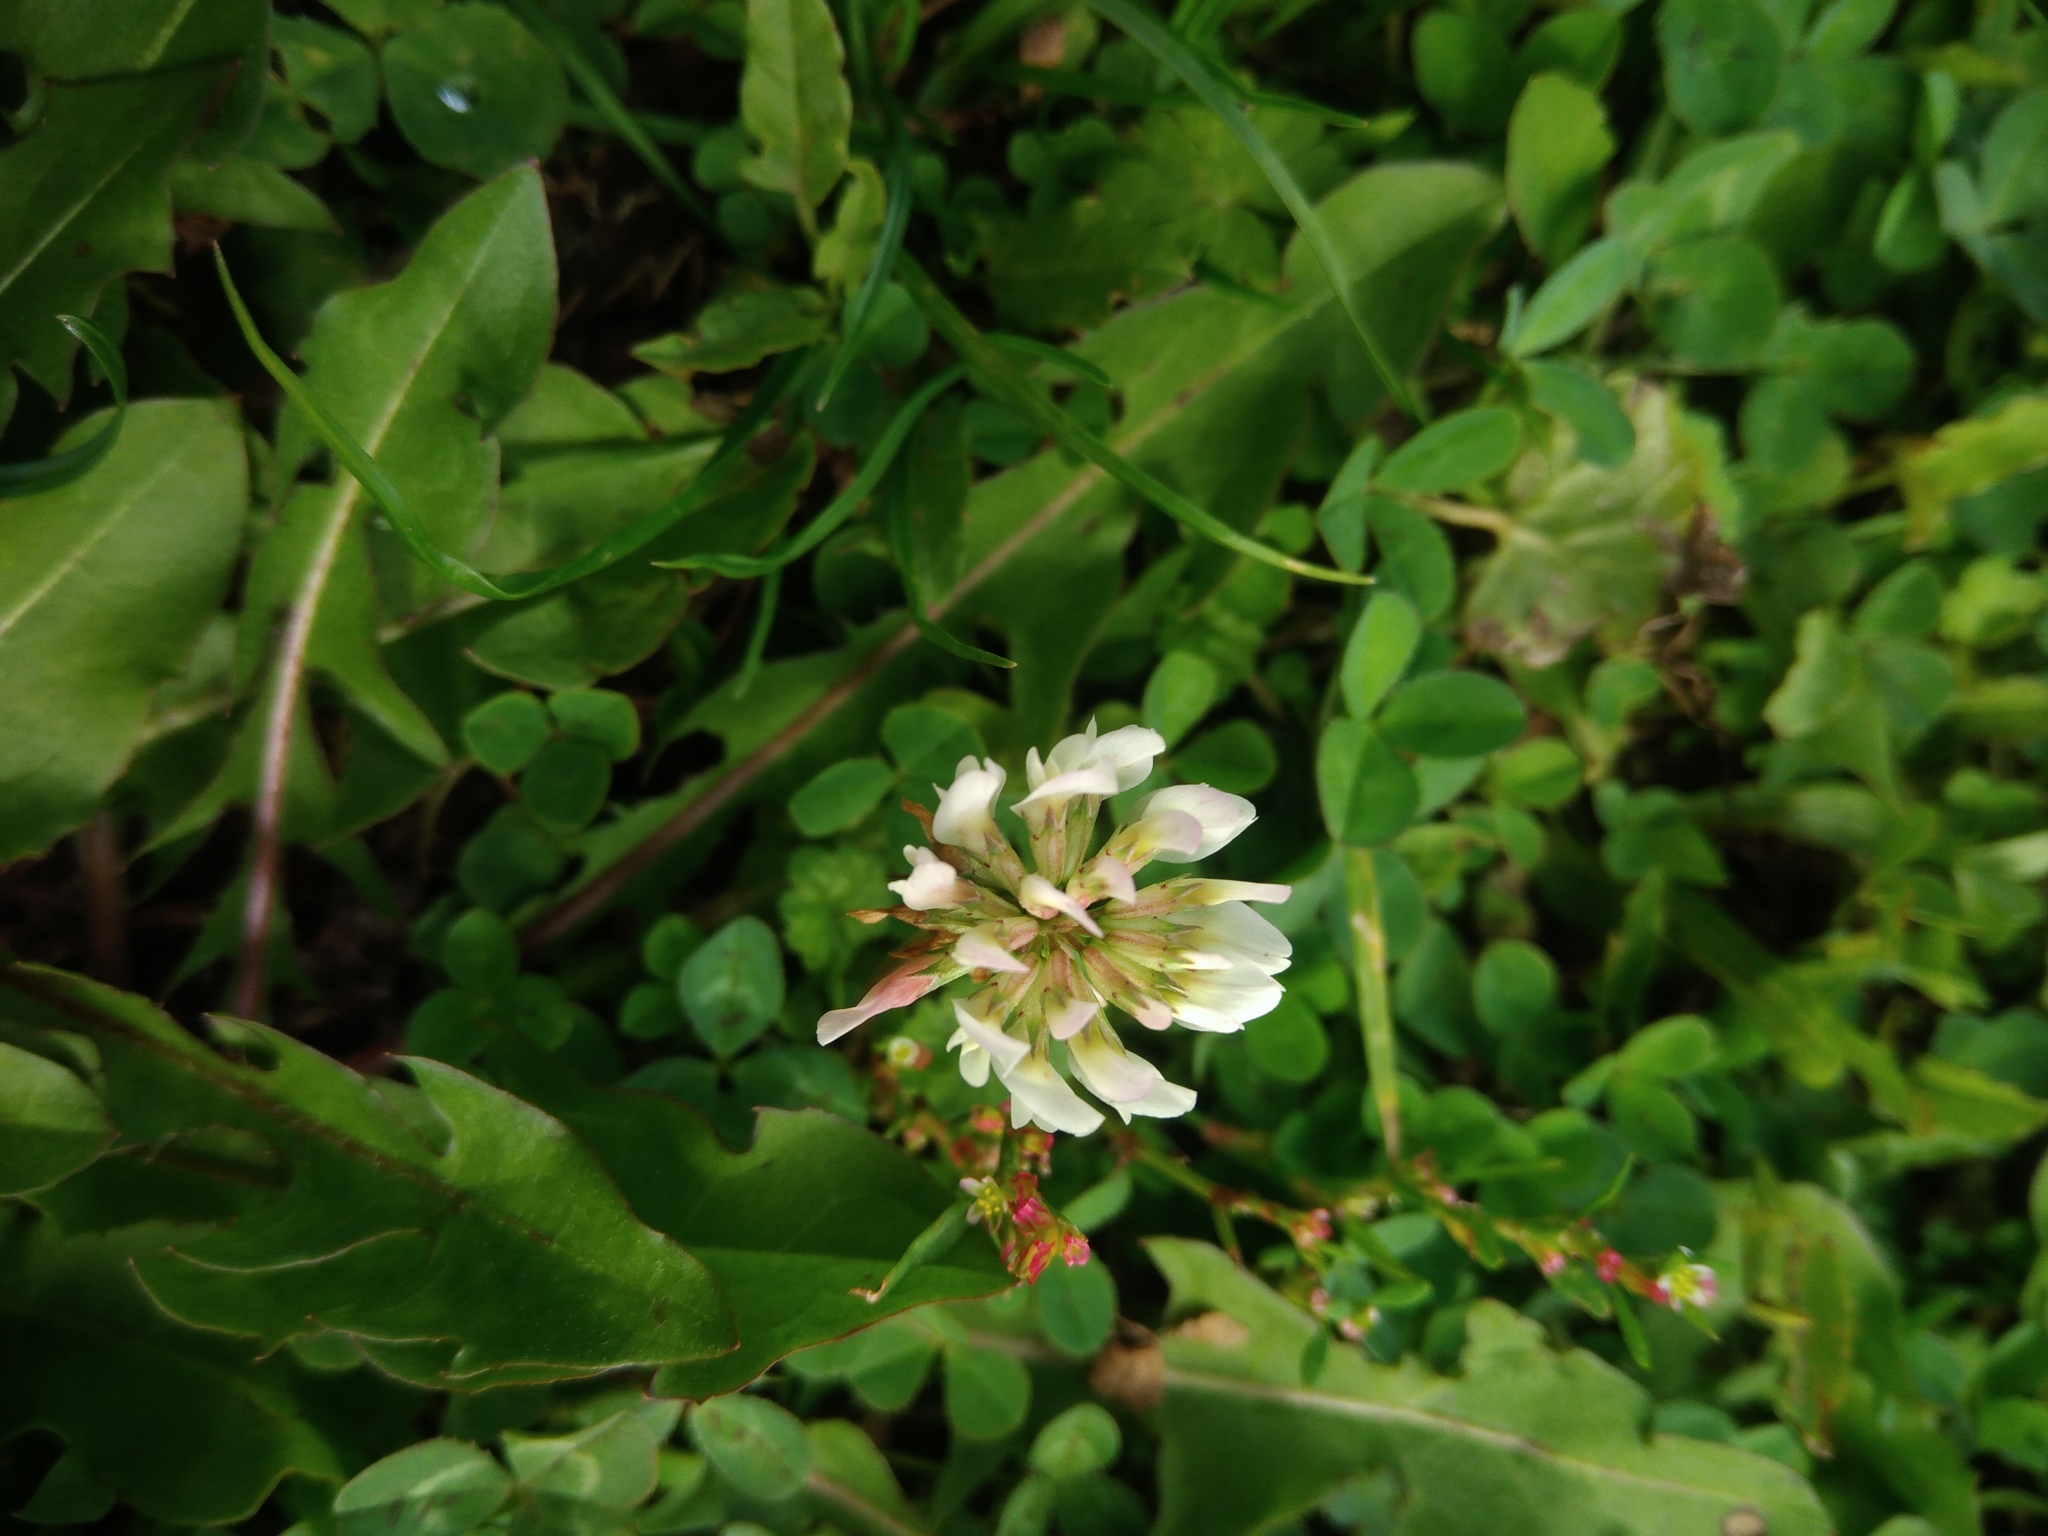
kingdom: Plantae
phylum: Tracheophyta
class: Magnoliopsida
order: Fabales
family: Fabaceae
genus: Trifolium
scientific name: Trifolium repens
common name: White clover
